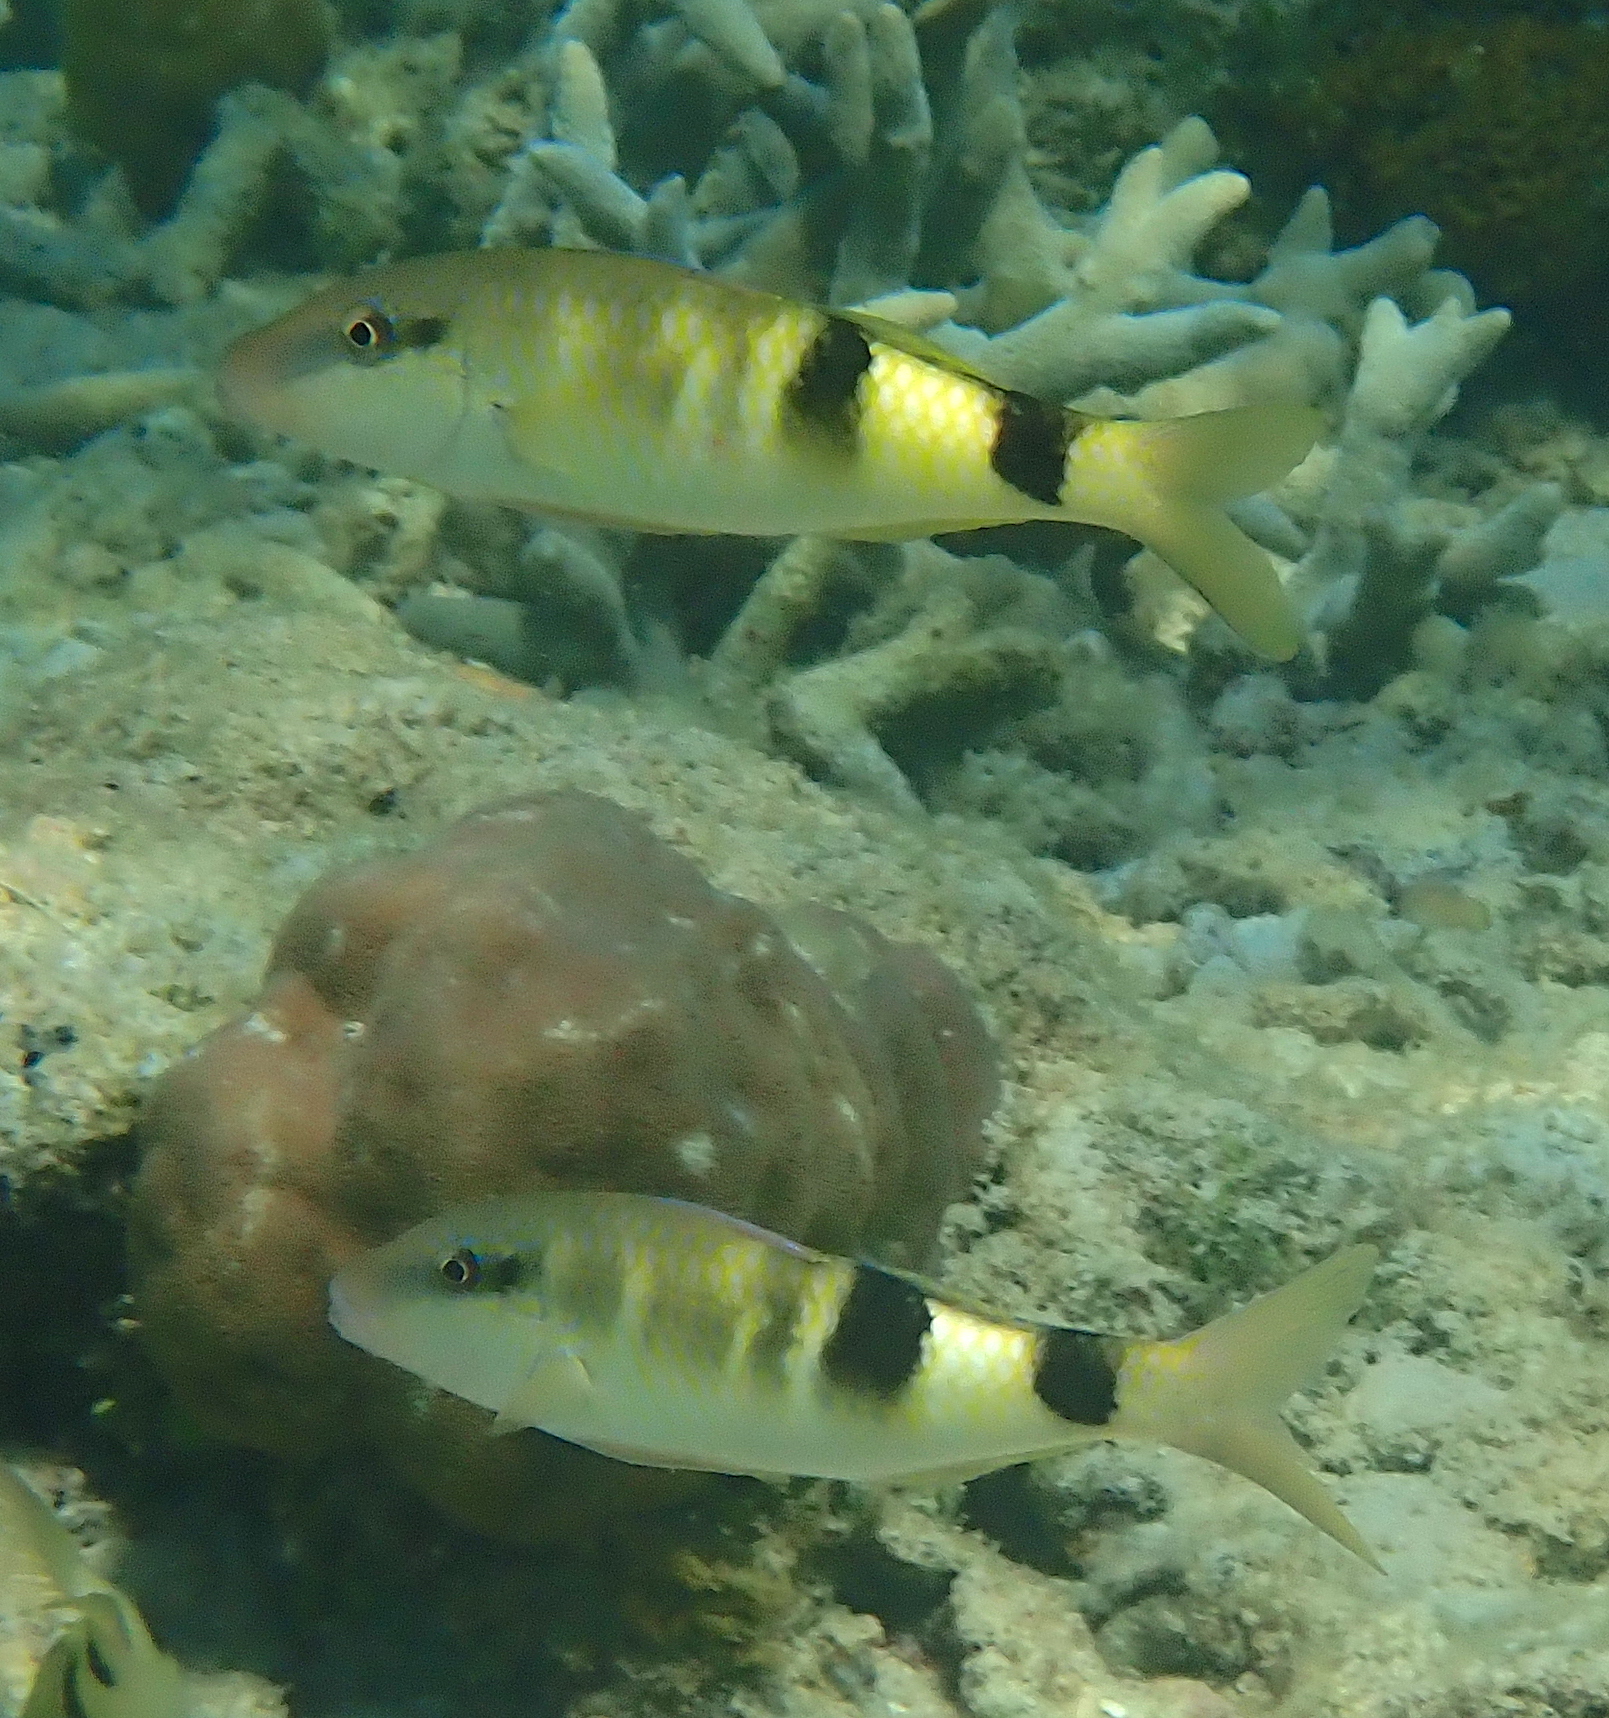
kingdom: Animalia
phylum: Chordata
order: Perciformes
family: Mullidae
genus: Parupeneus
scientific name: Parupeneus multifasciatus
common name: Manybar goatfish
